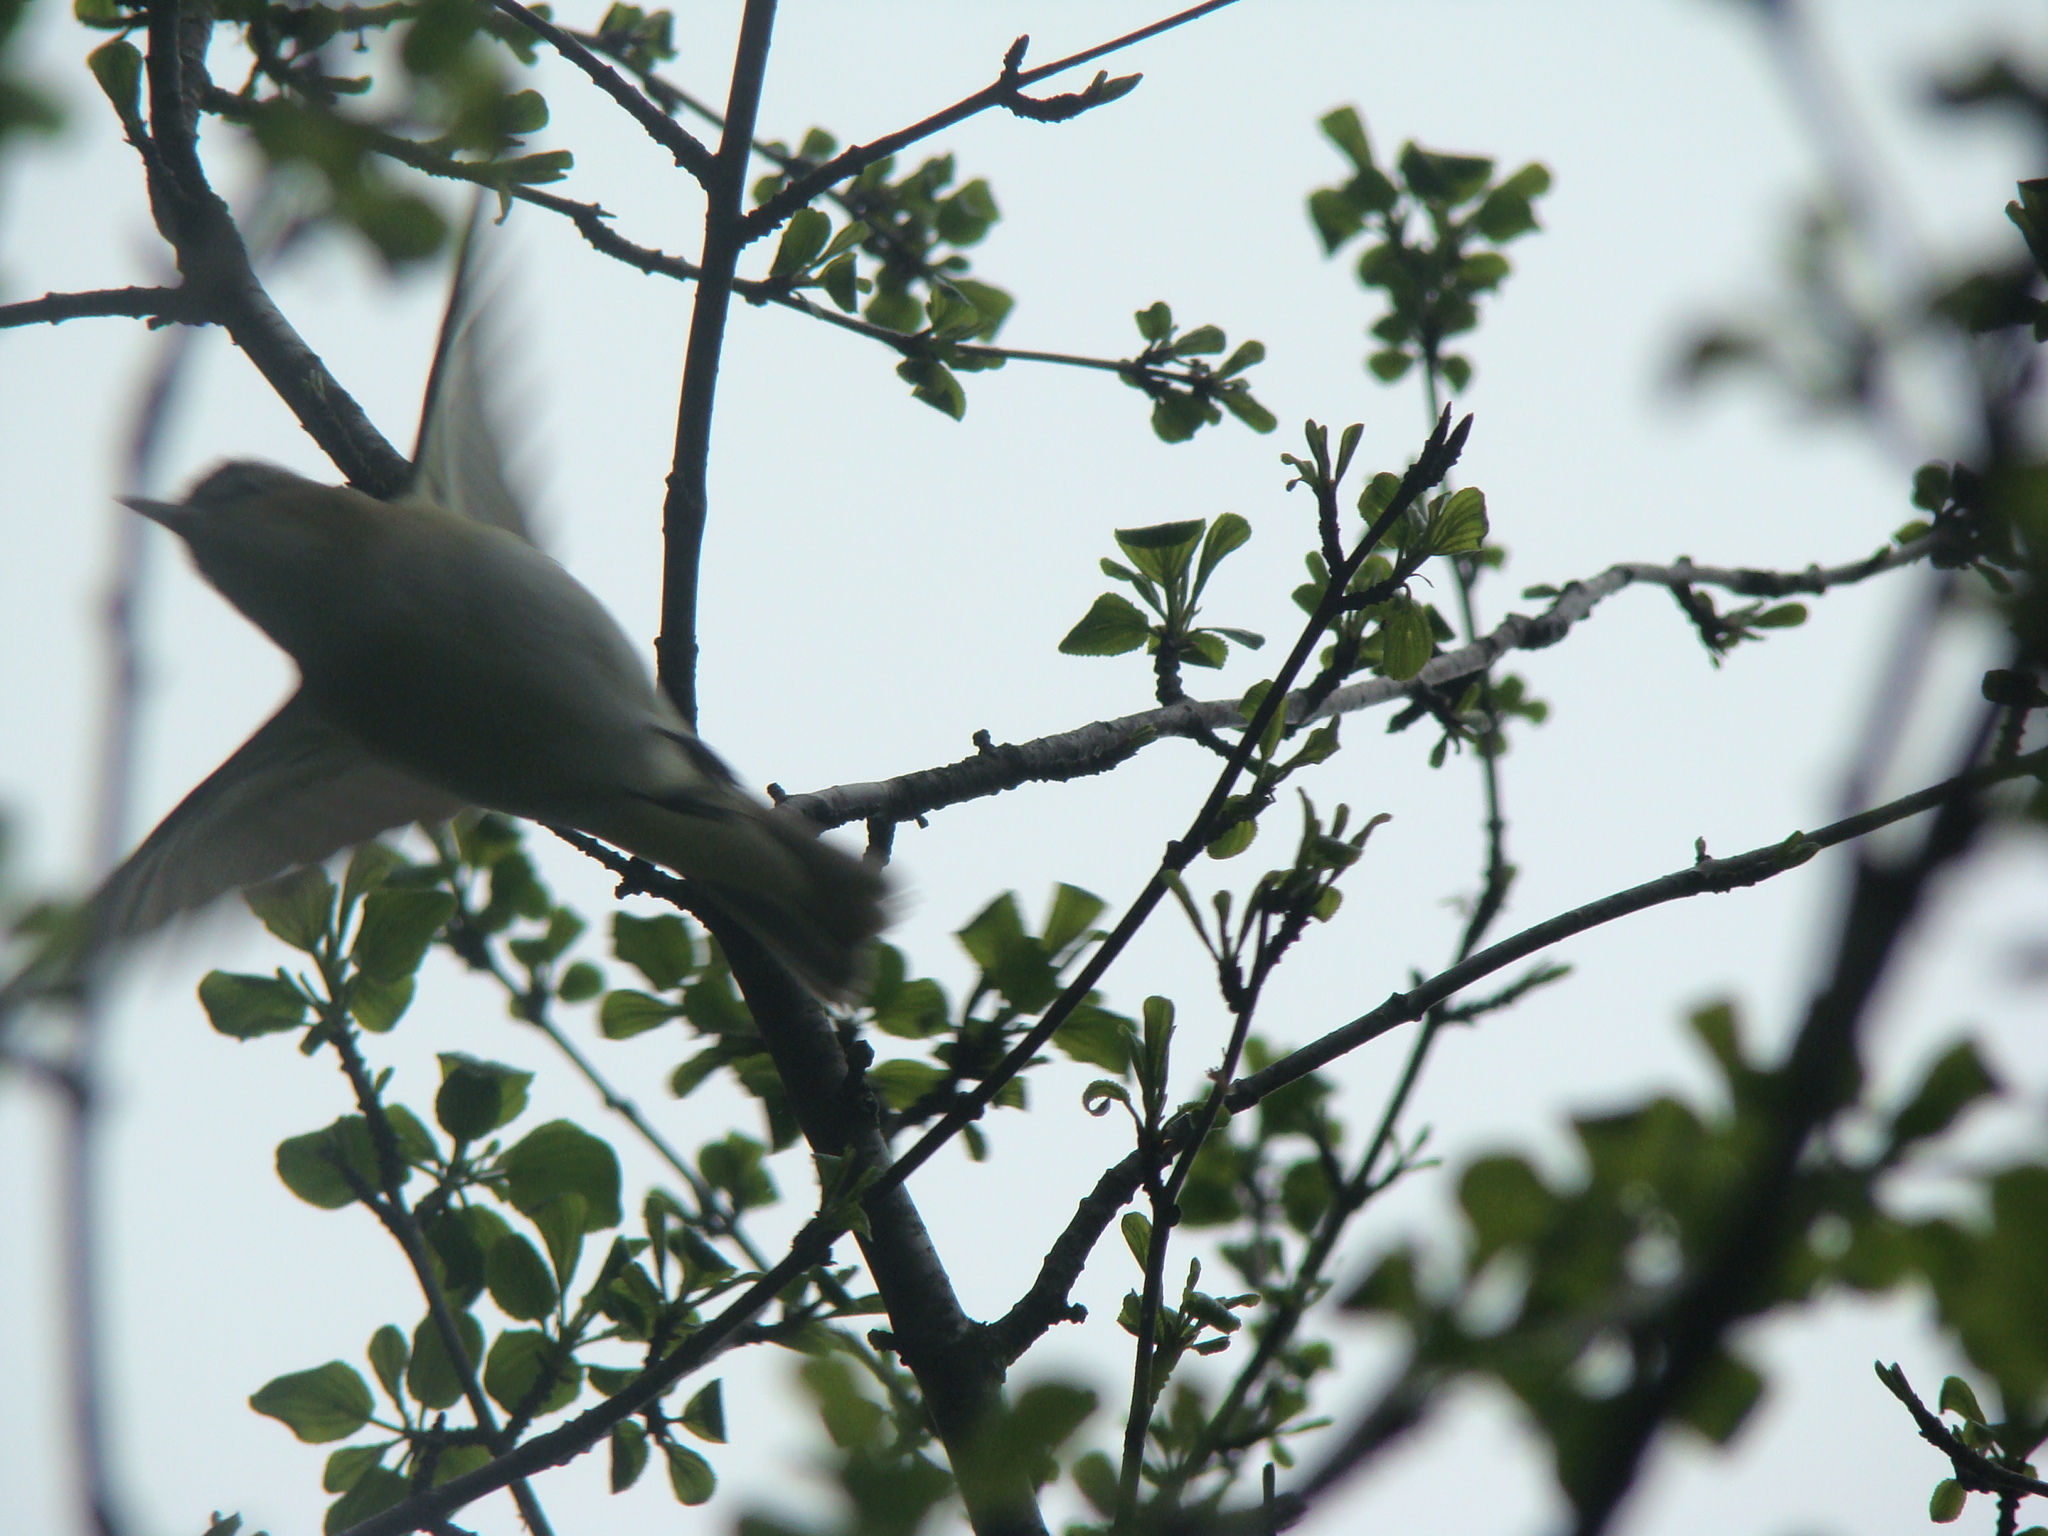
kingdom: Animalia
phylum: Chordata
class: Aves
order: Passeriformes
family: Vireonidae
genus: Vireo
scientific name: Vireo olivaceus
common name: Red-eyed vireo
